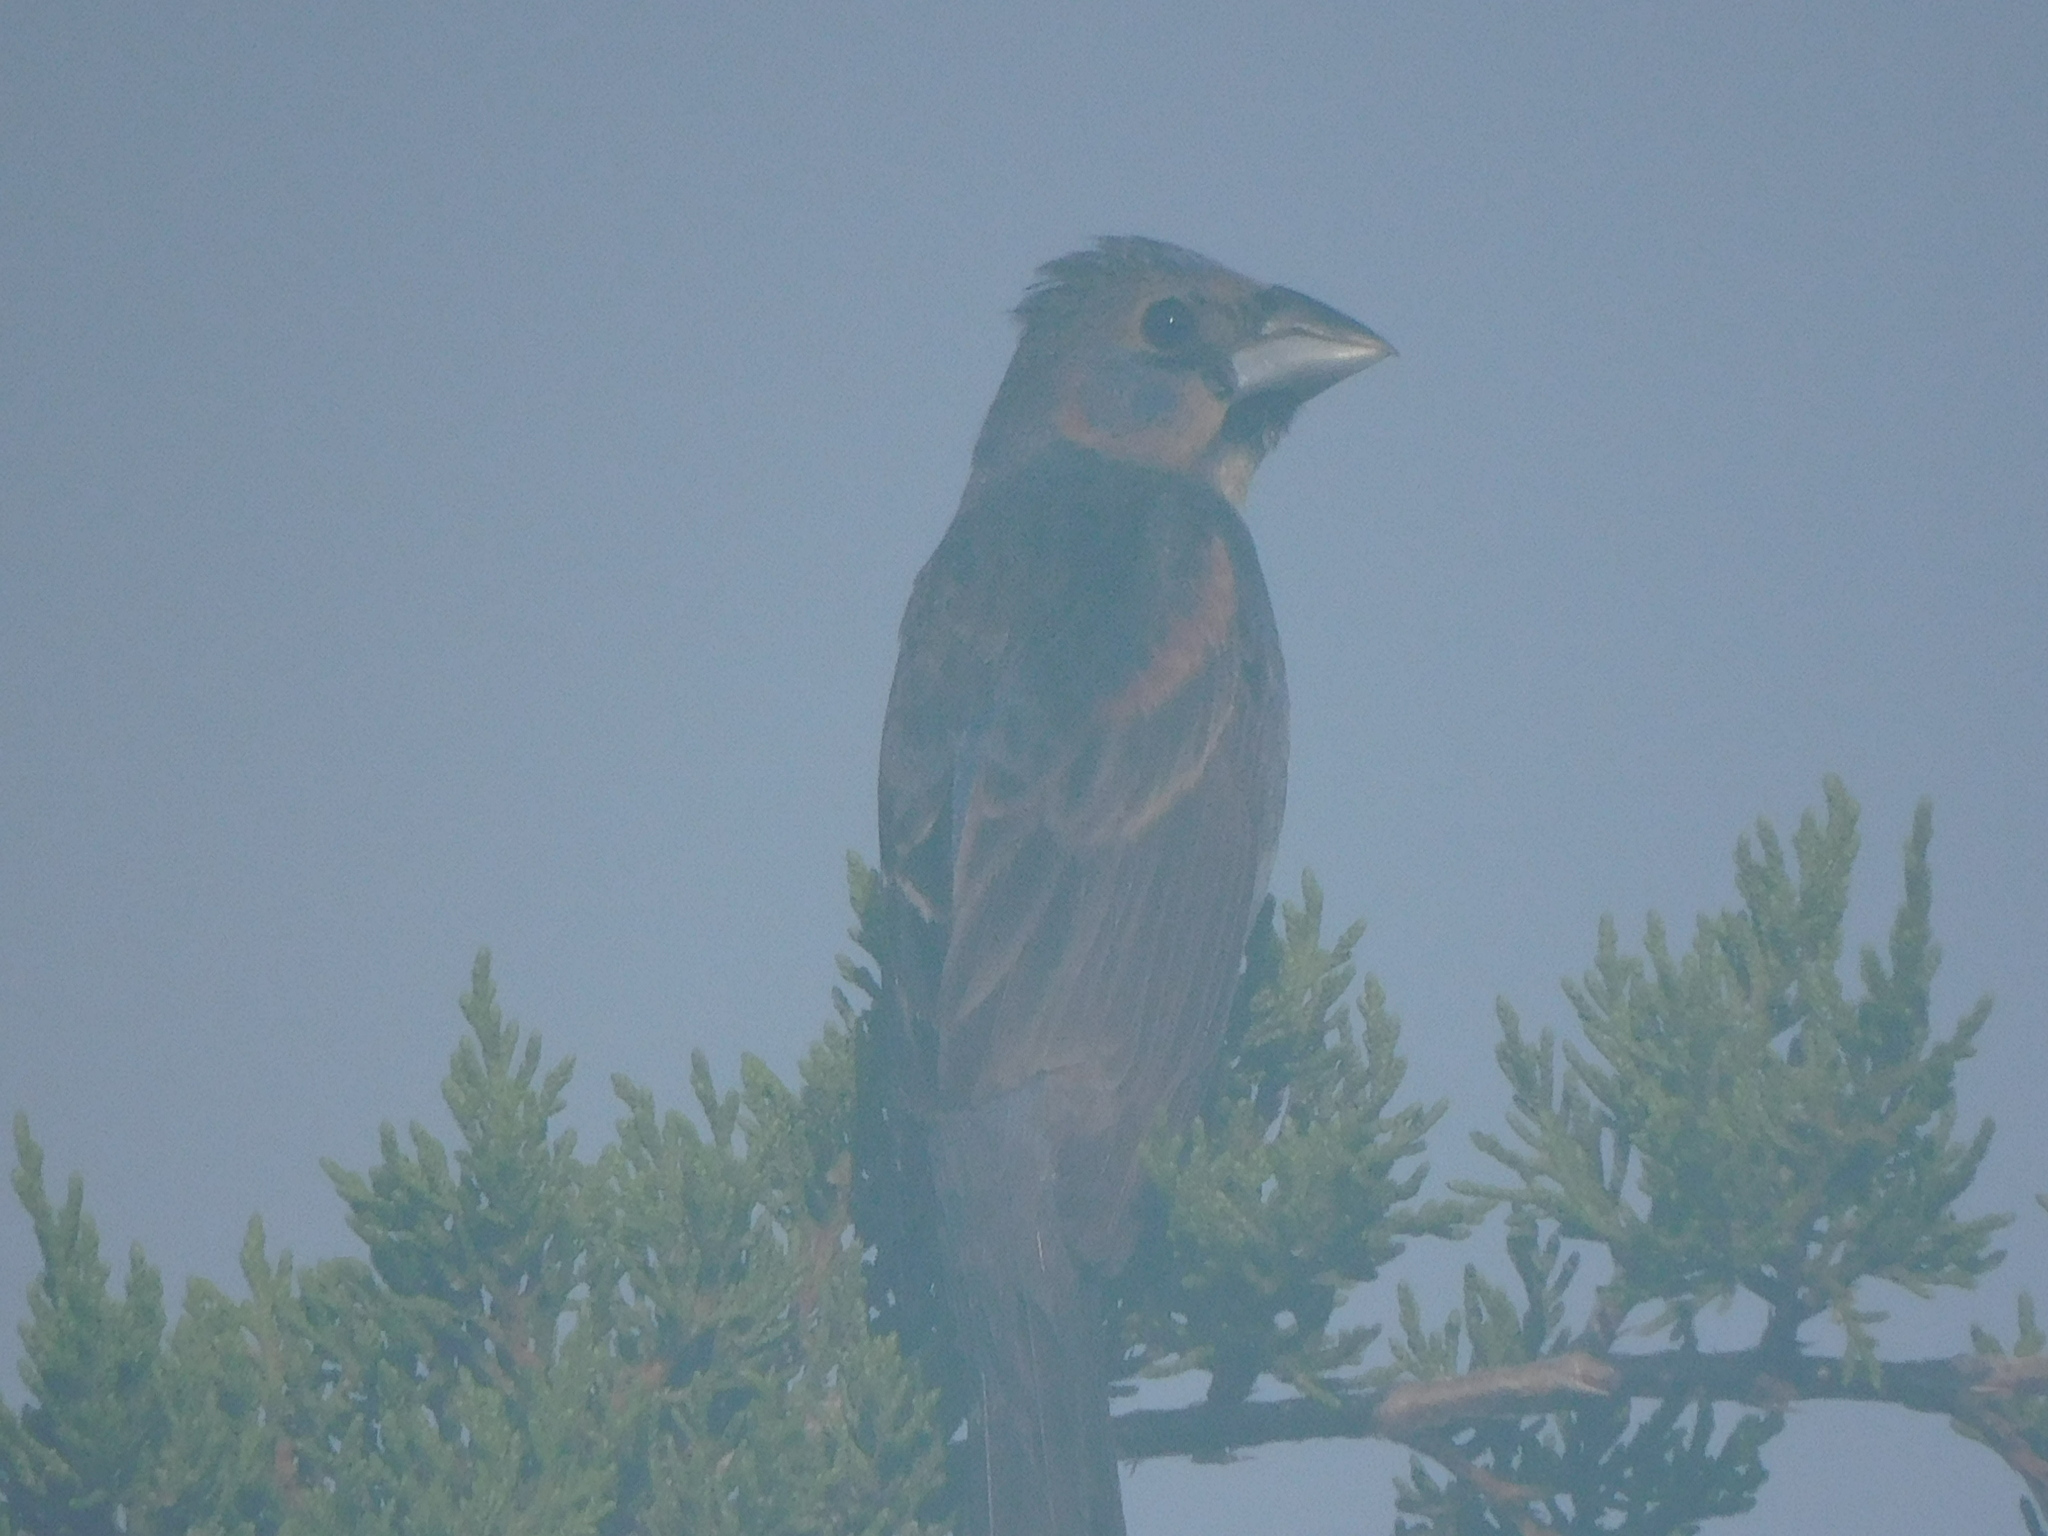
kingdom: Animalia
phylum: Chordata
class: Aves
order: Passeriformes
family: Cardinalidae
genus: Passerina
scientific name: Passerina caerulea
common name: Blue grosbeak
